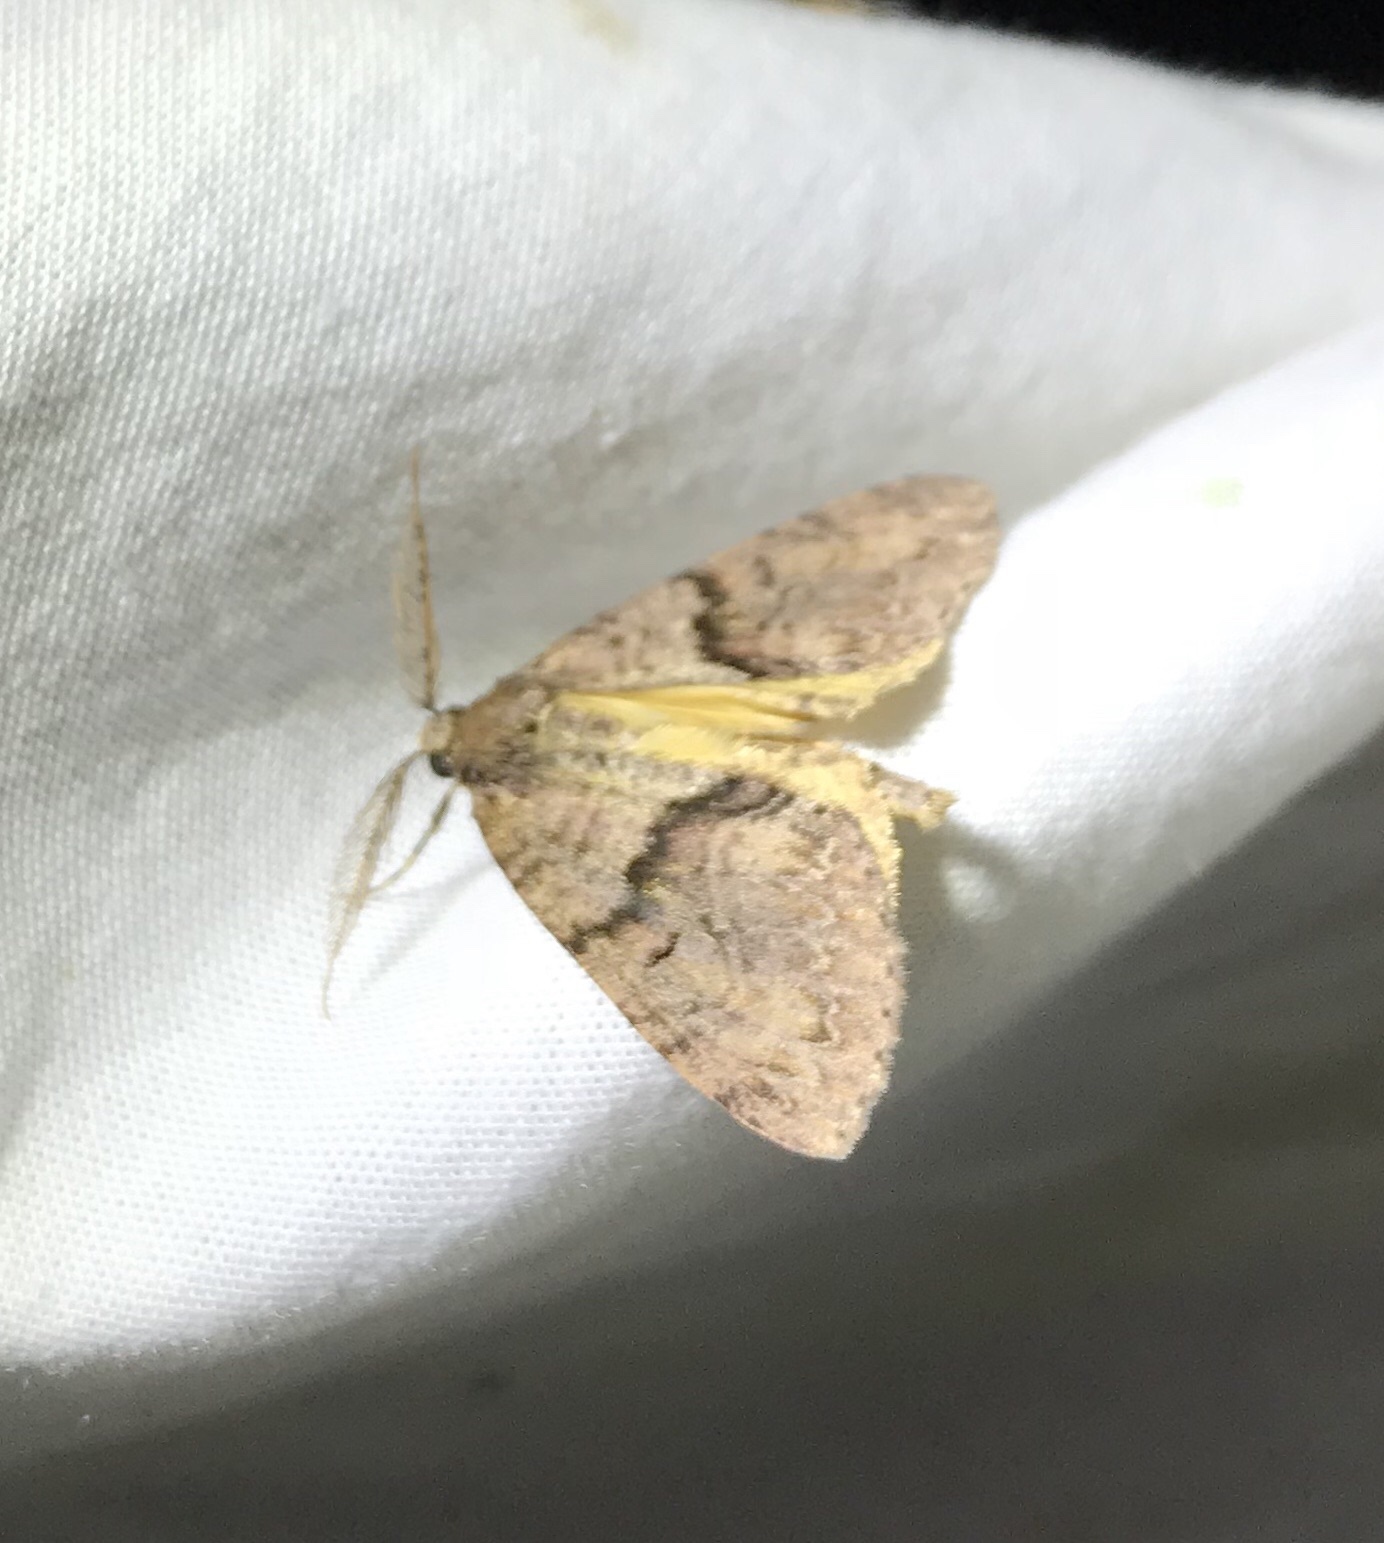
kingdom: Animalia
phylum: Arthropoda
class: Insecta
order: Lepidoptera
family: Geometridae
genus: Pseudocoremia
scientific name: Pseudocoremia suavis
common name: Common forest looper
